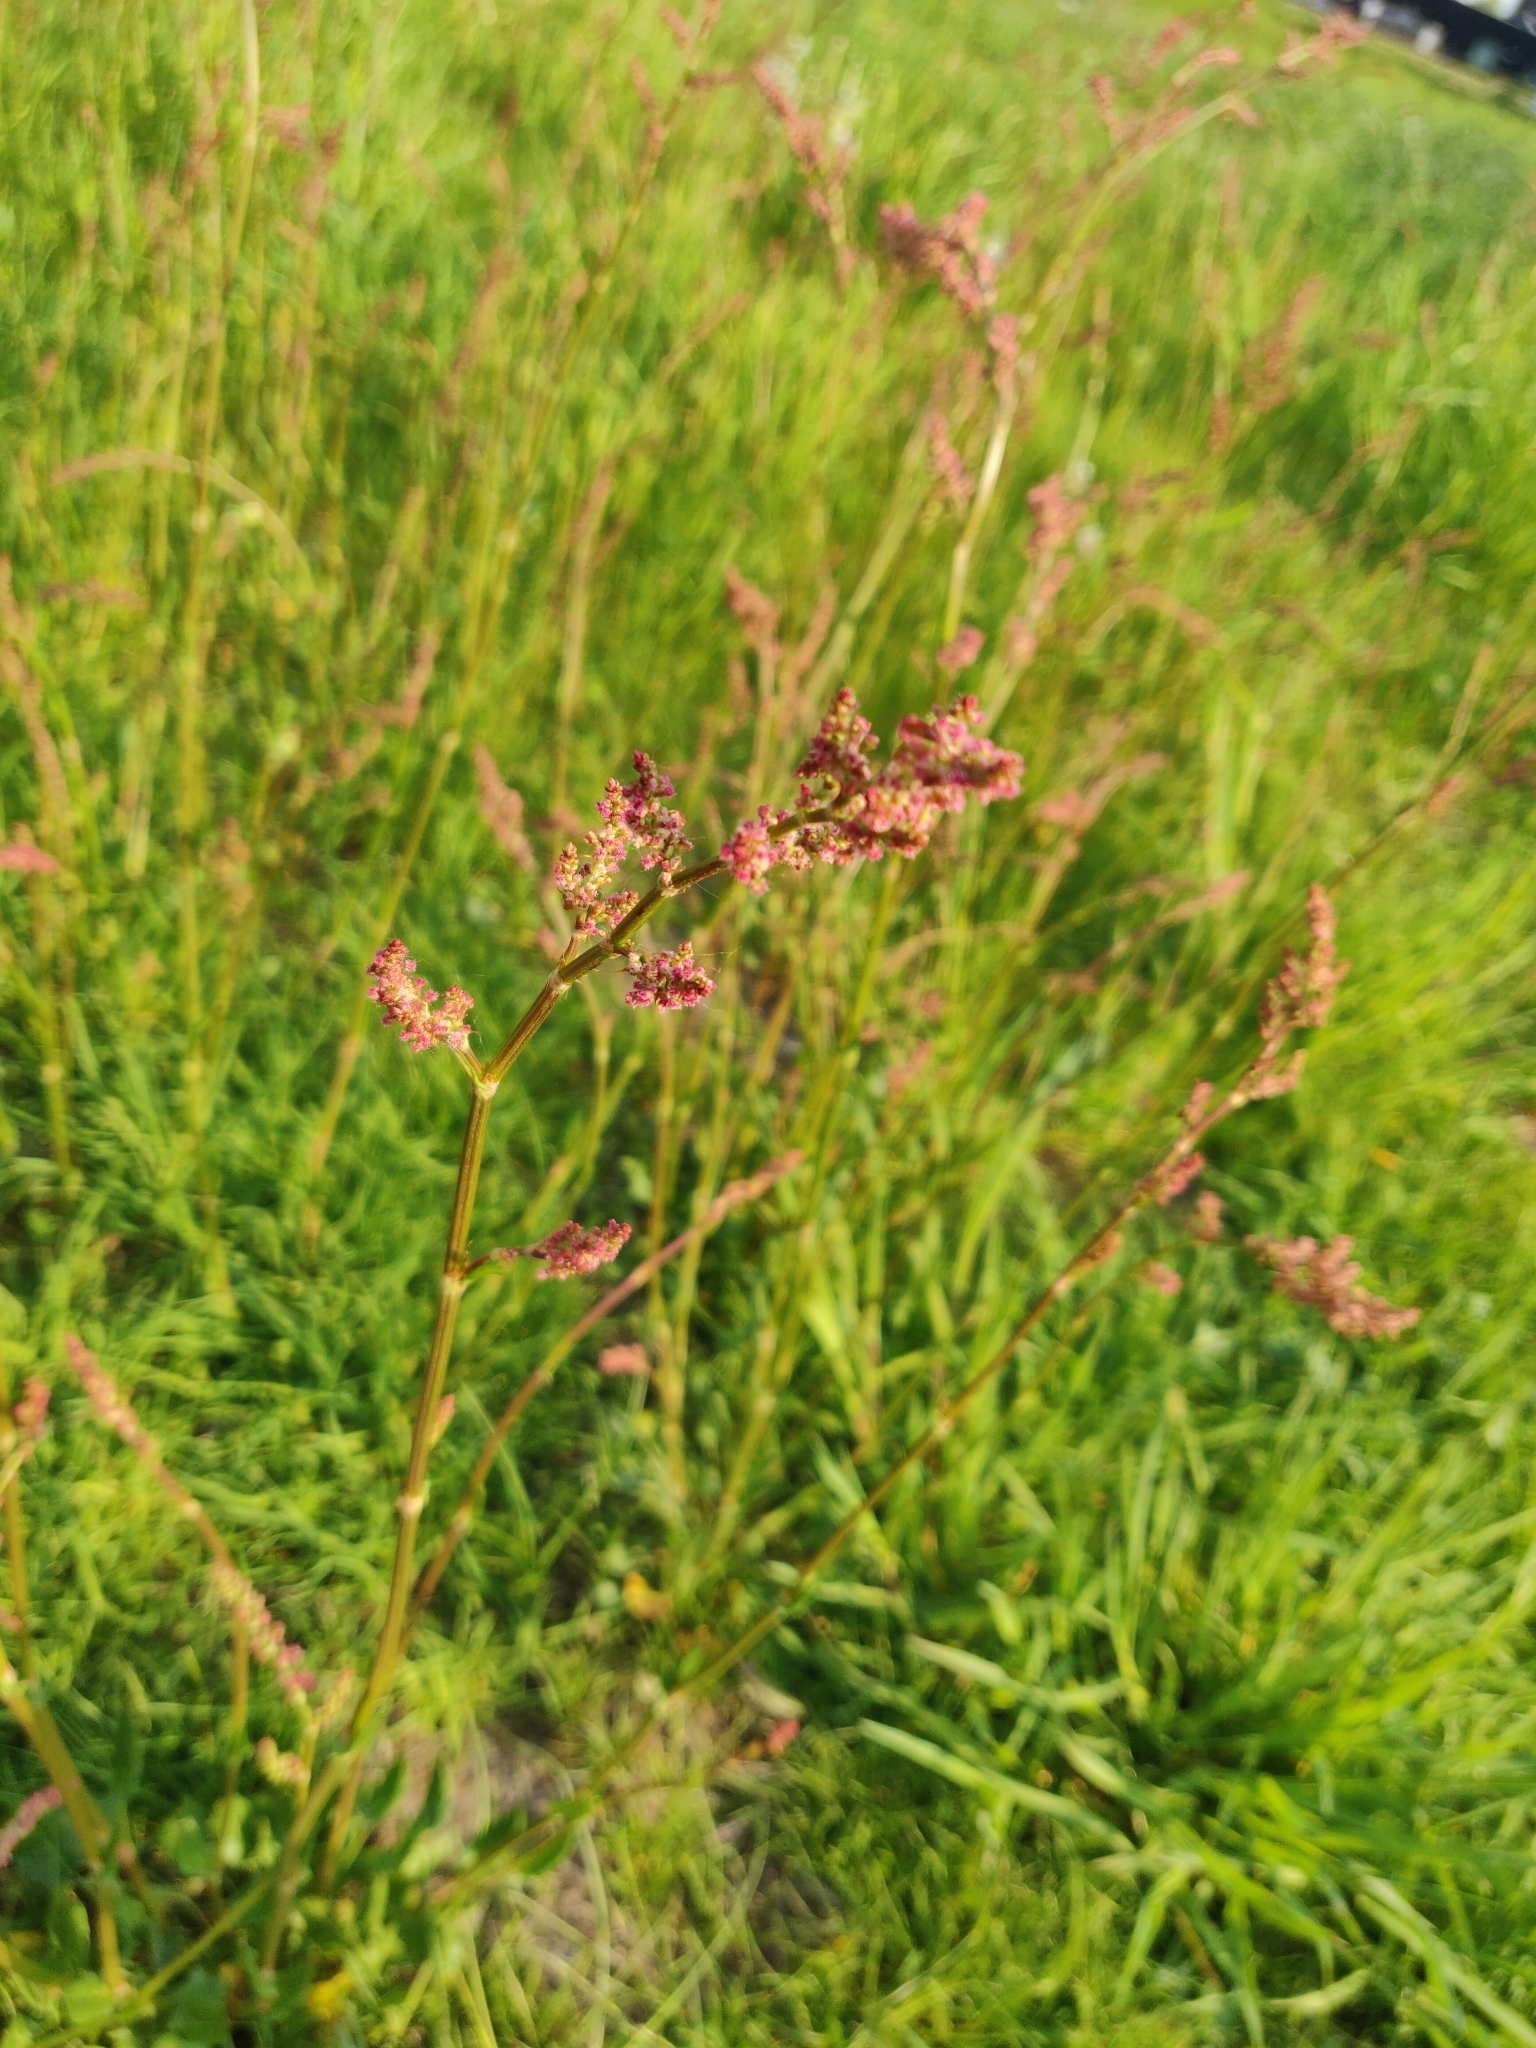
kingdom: Plantae
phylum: Tracheophyta
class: Magnoliopsida
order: Caryophyllales
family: Polygonaceae
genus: Rumex
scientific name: Rumex acetosella
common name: Common sheep sorrel
